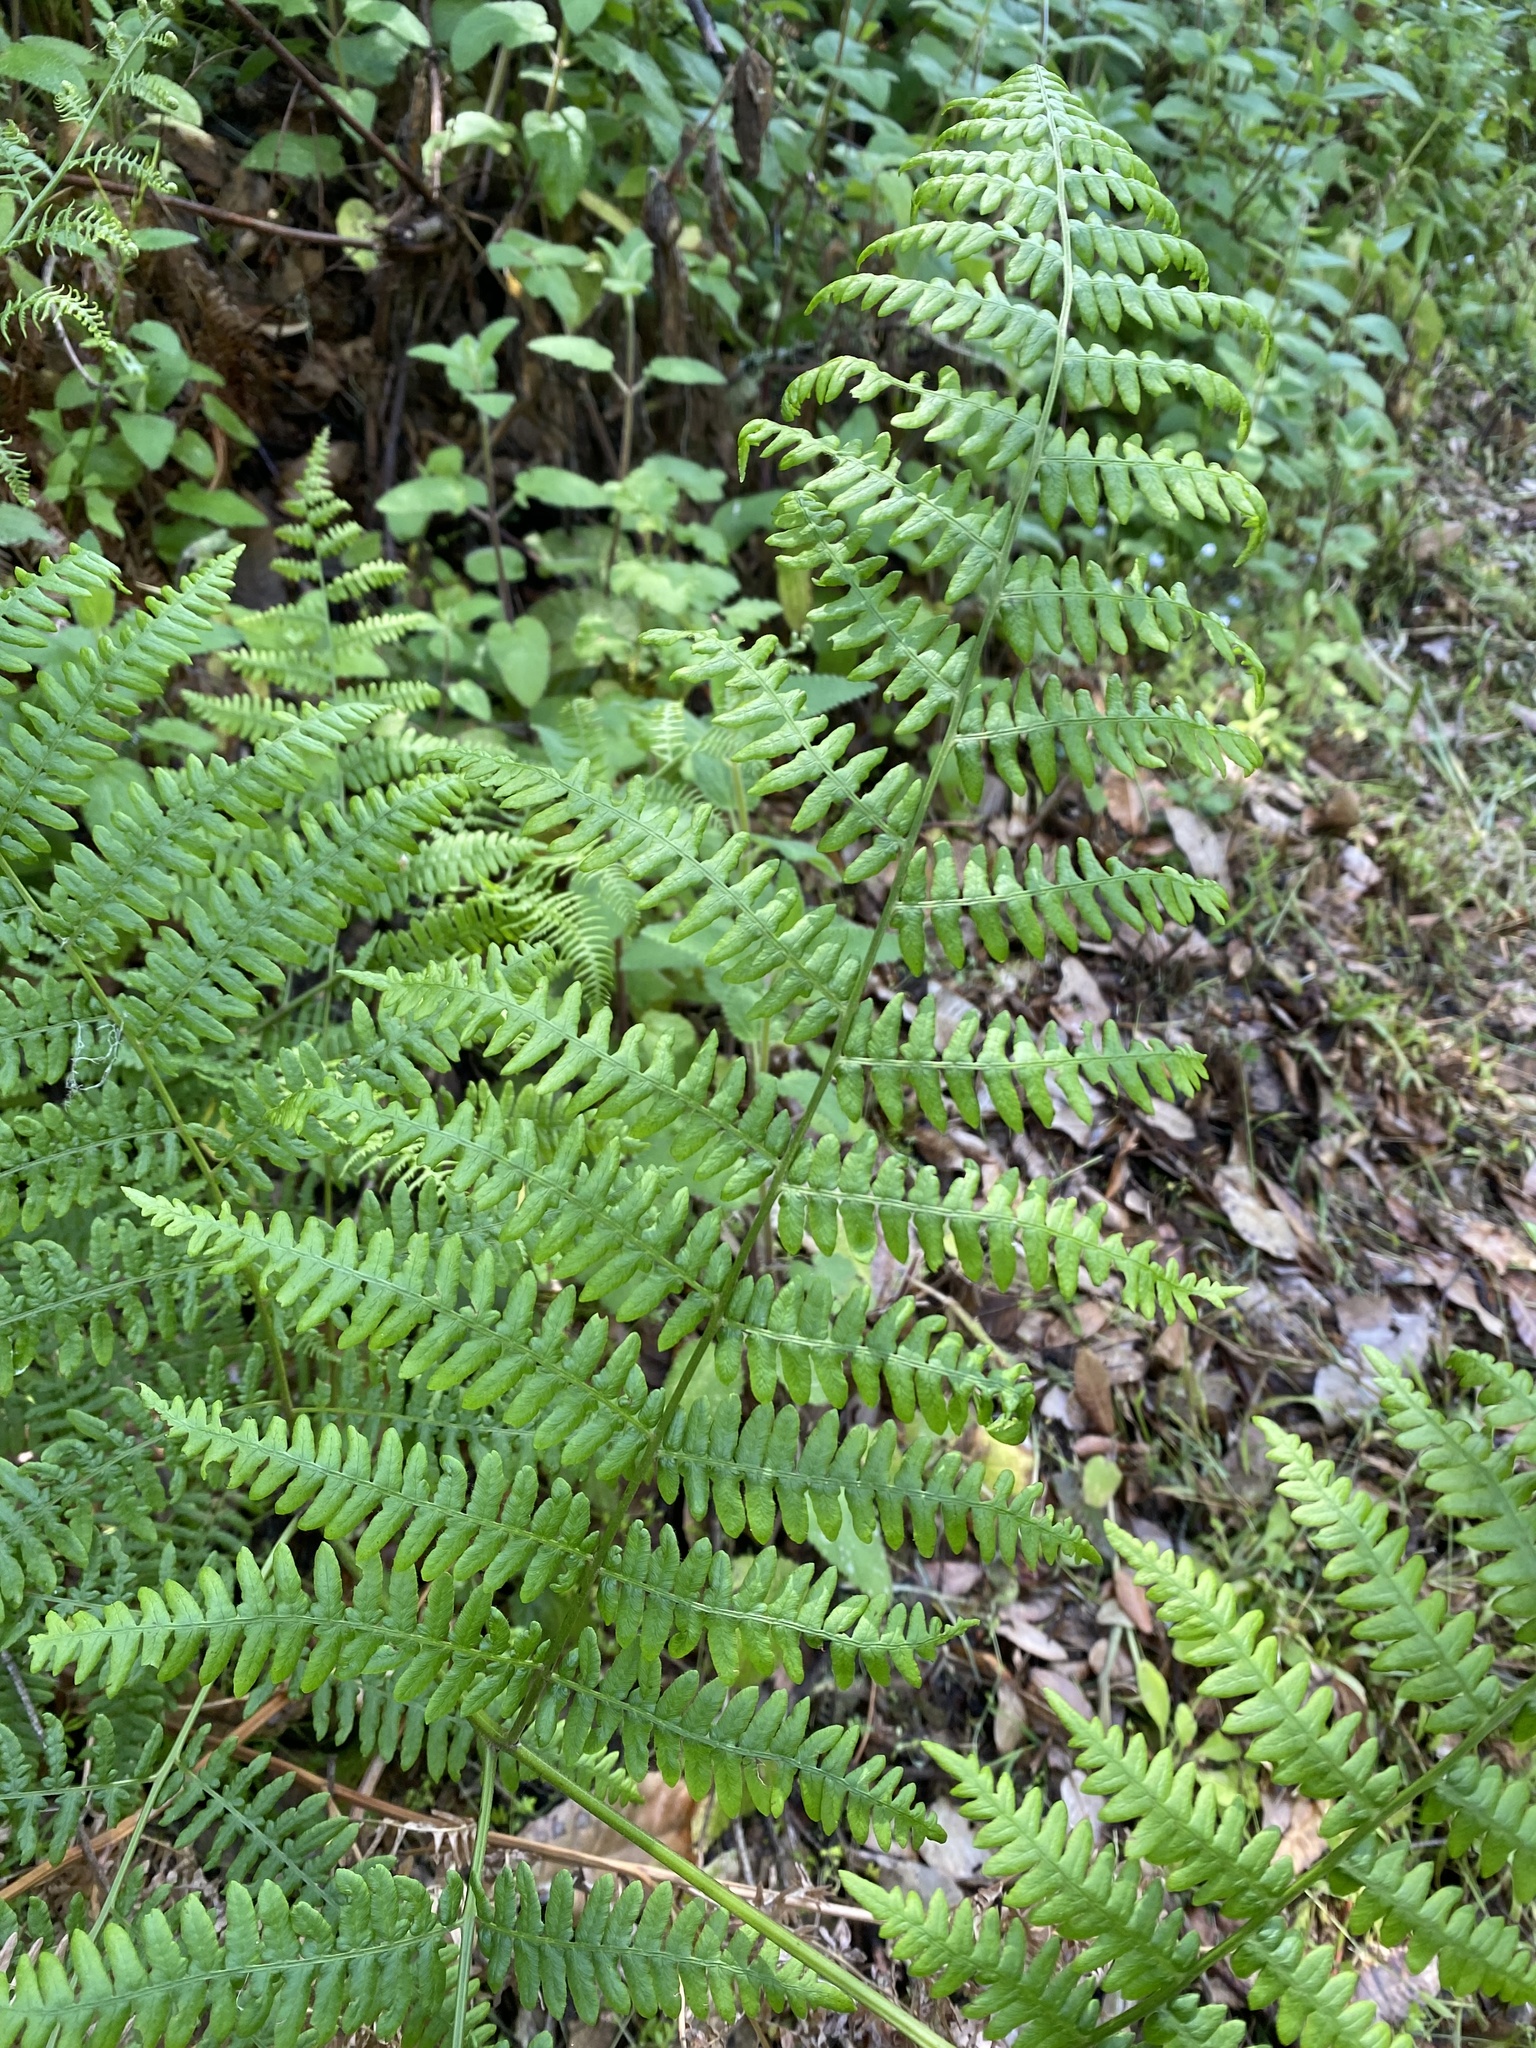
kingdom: Plantae
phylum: Tracheophyta
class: Polypodiopsida
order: Polypodiales
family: Dennstaedtiaceae
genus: Pteridium
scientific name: Pteridium aquilinum
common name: Bracken
